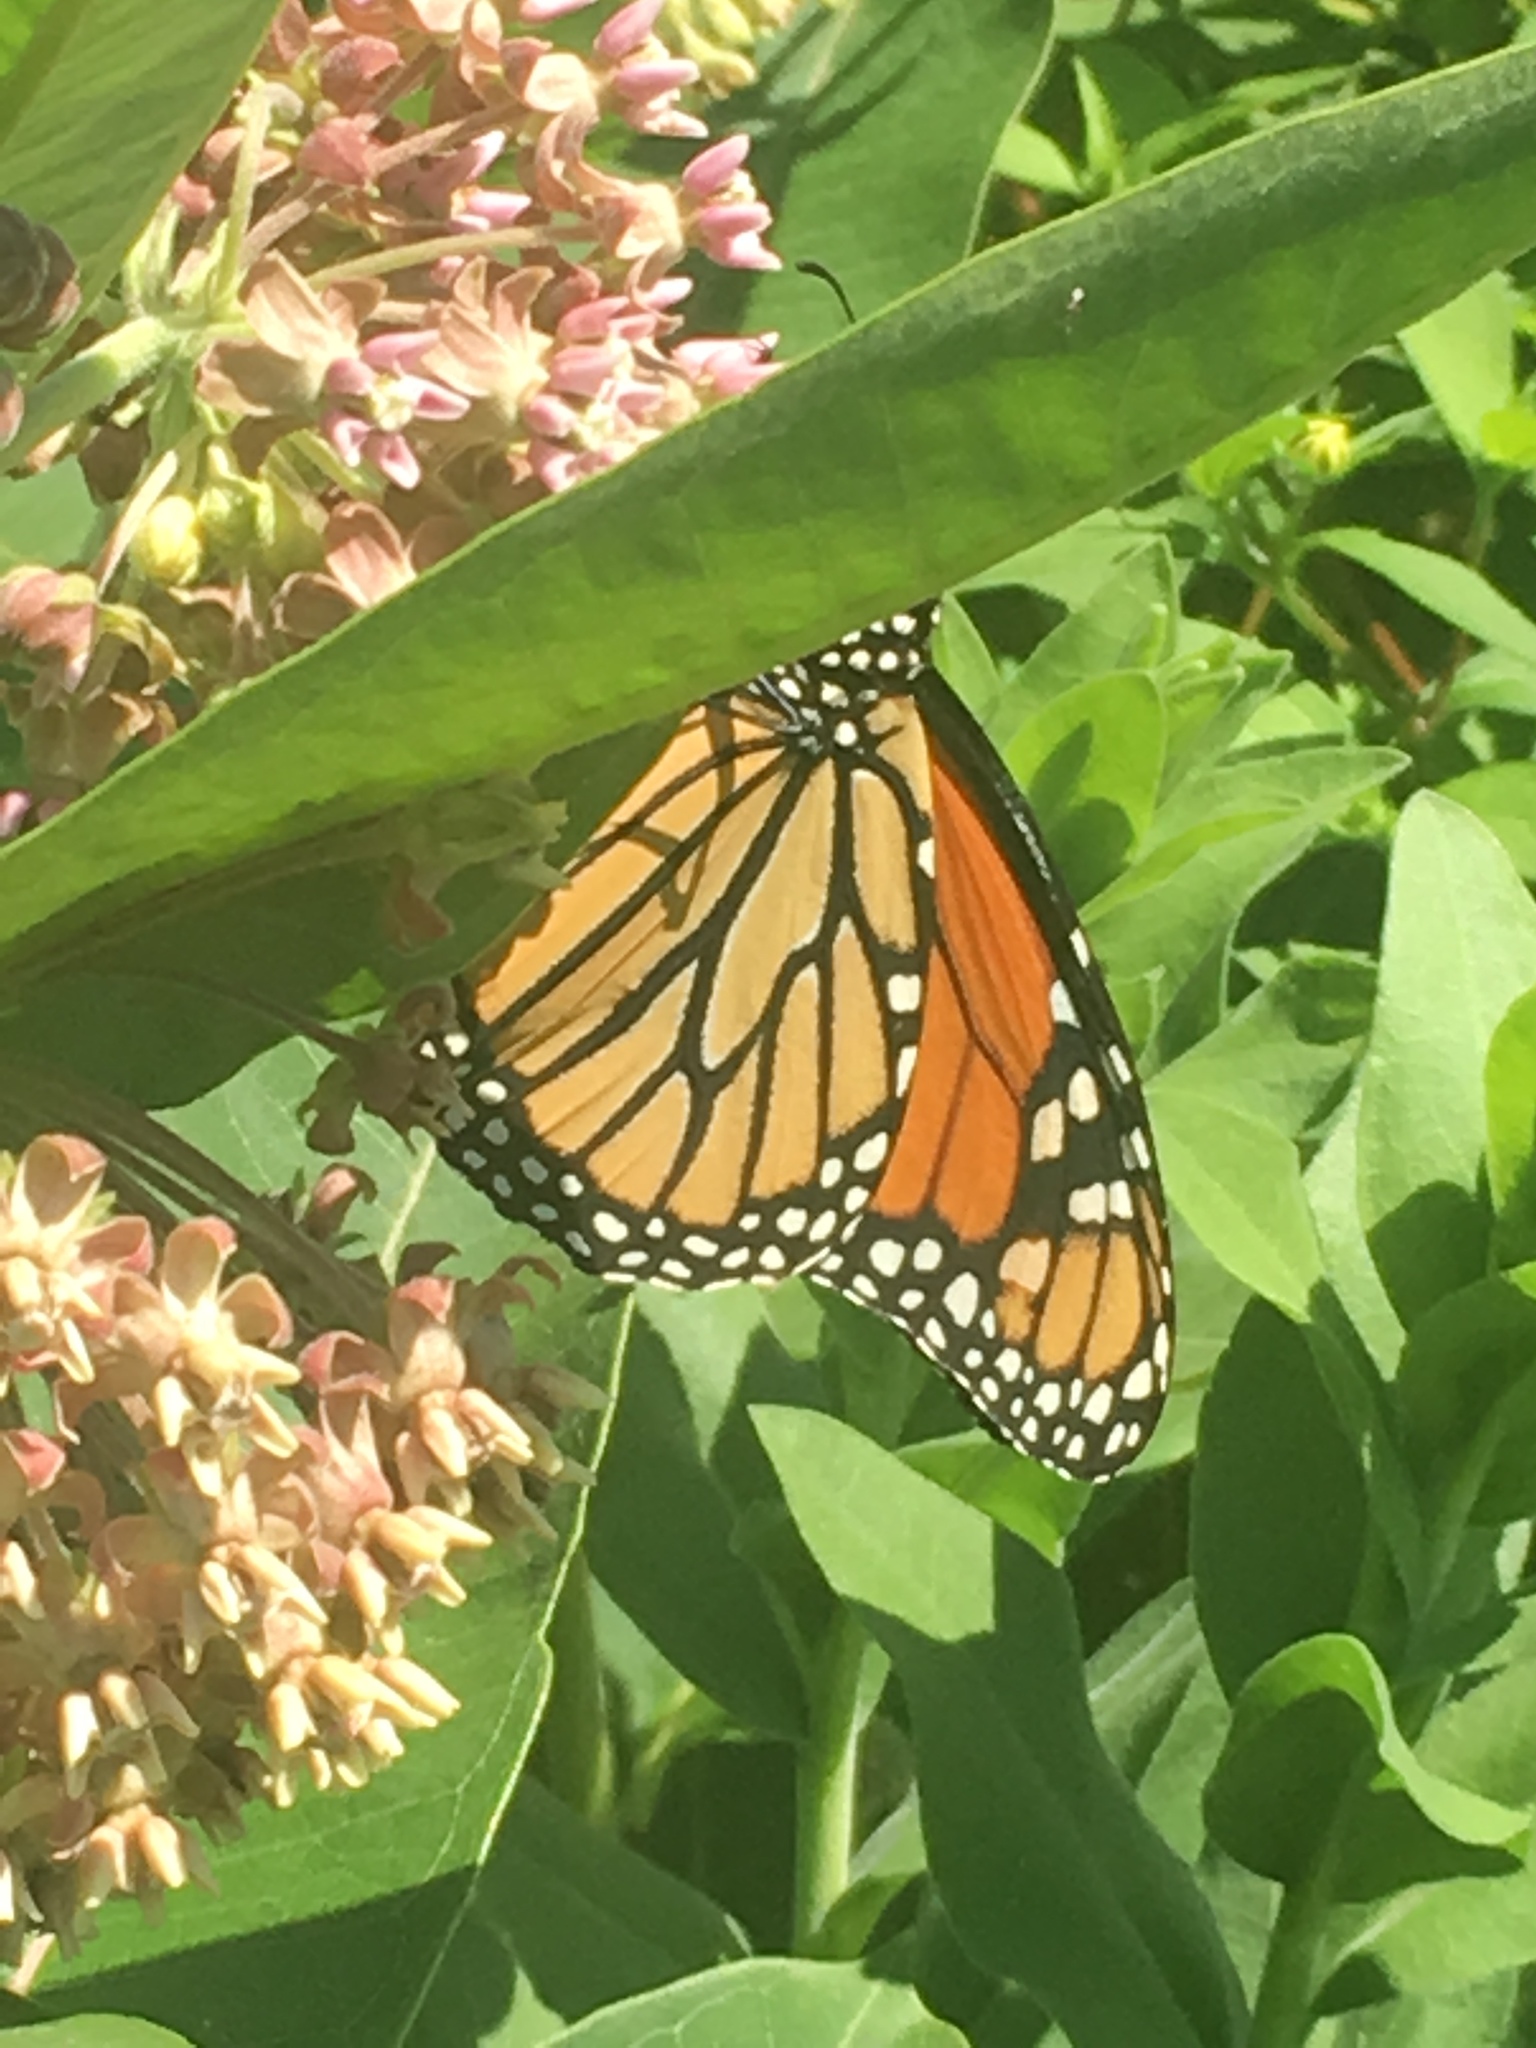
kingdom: Animalia
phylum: Arthropoda
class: Insecta
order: Lepidoptera
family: Nymphalidae
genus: Danaus
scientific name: Danaus plexippus
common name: Monarch
